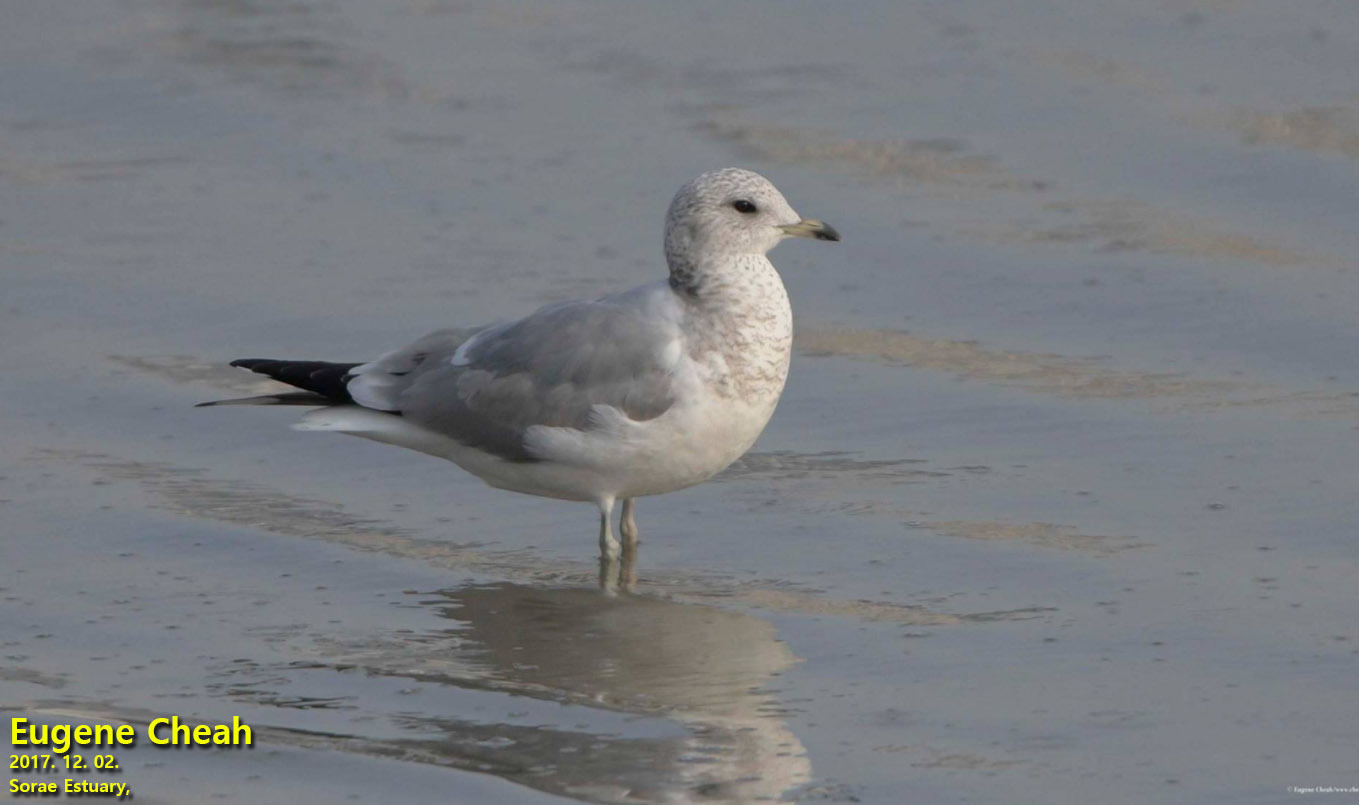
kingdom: Animalia
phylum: Chordata
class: Aves
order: Charadriiformes
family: Laridae
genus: Larus
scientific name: Larus canus
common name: Mew gull
